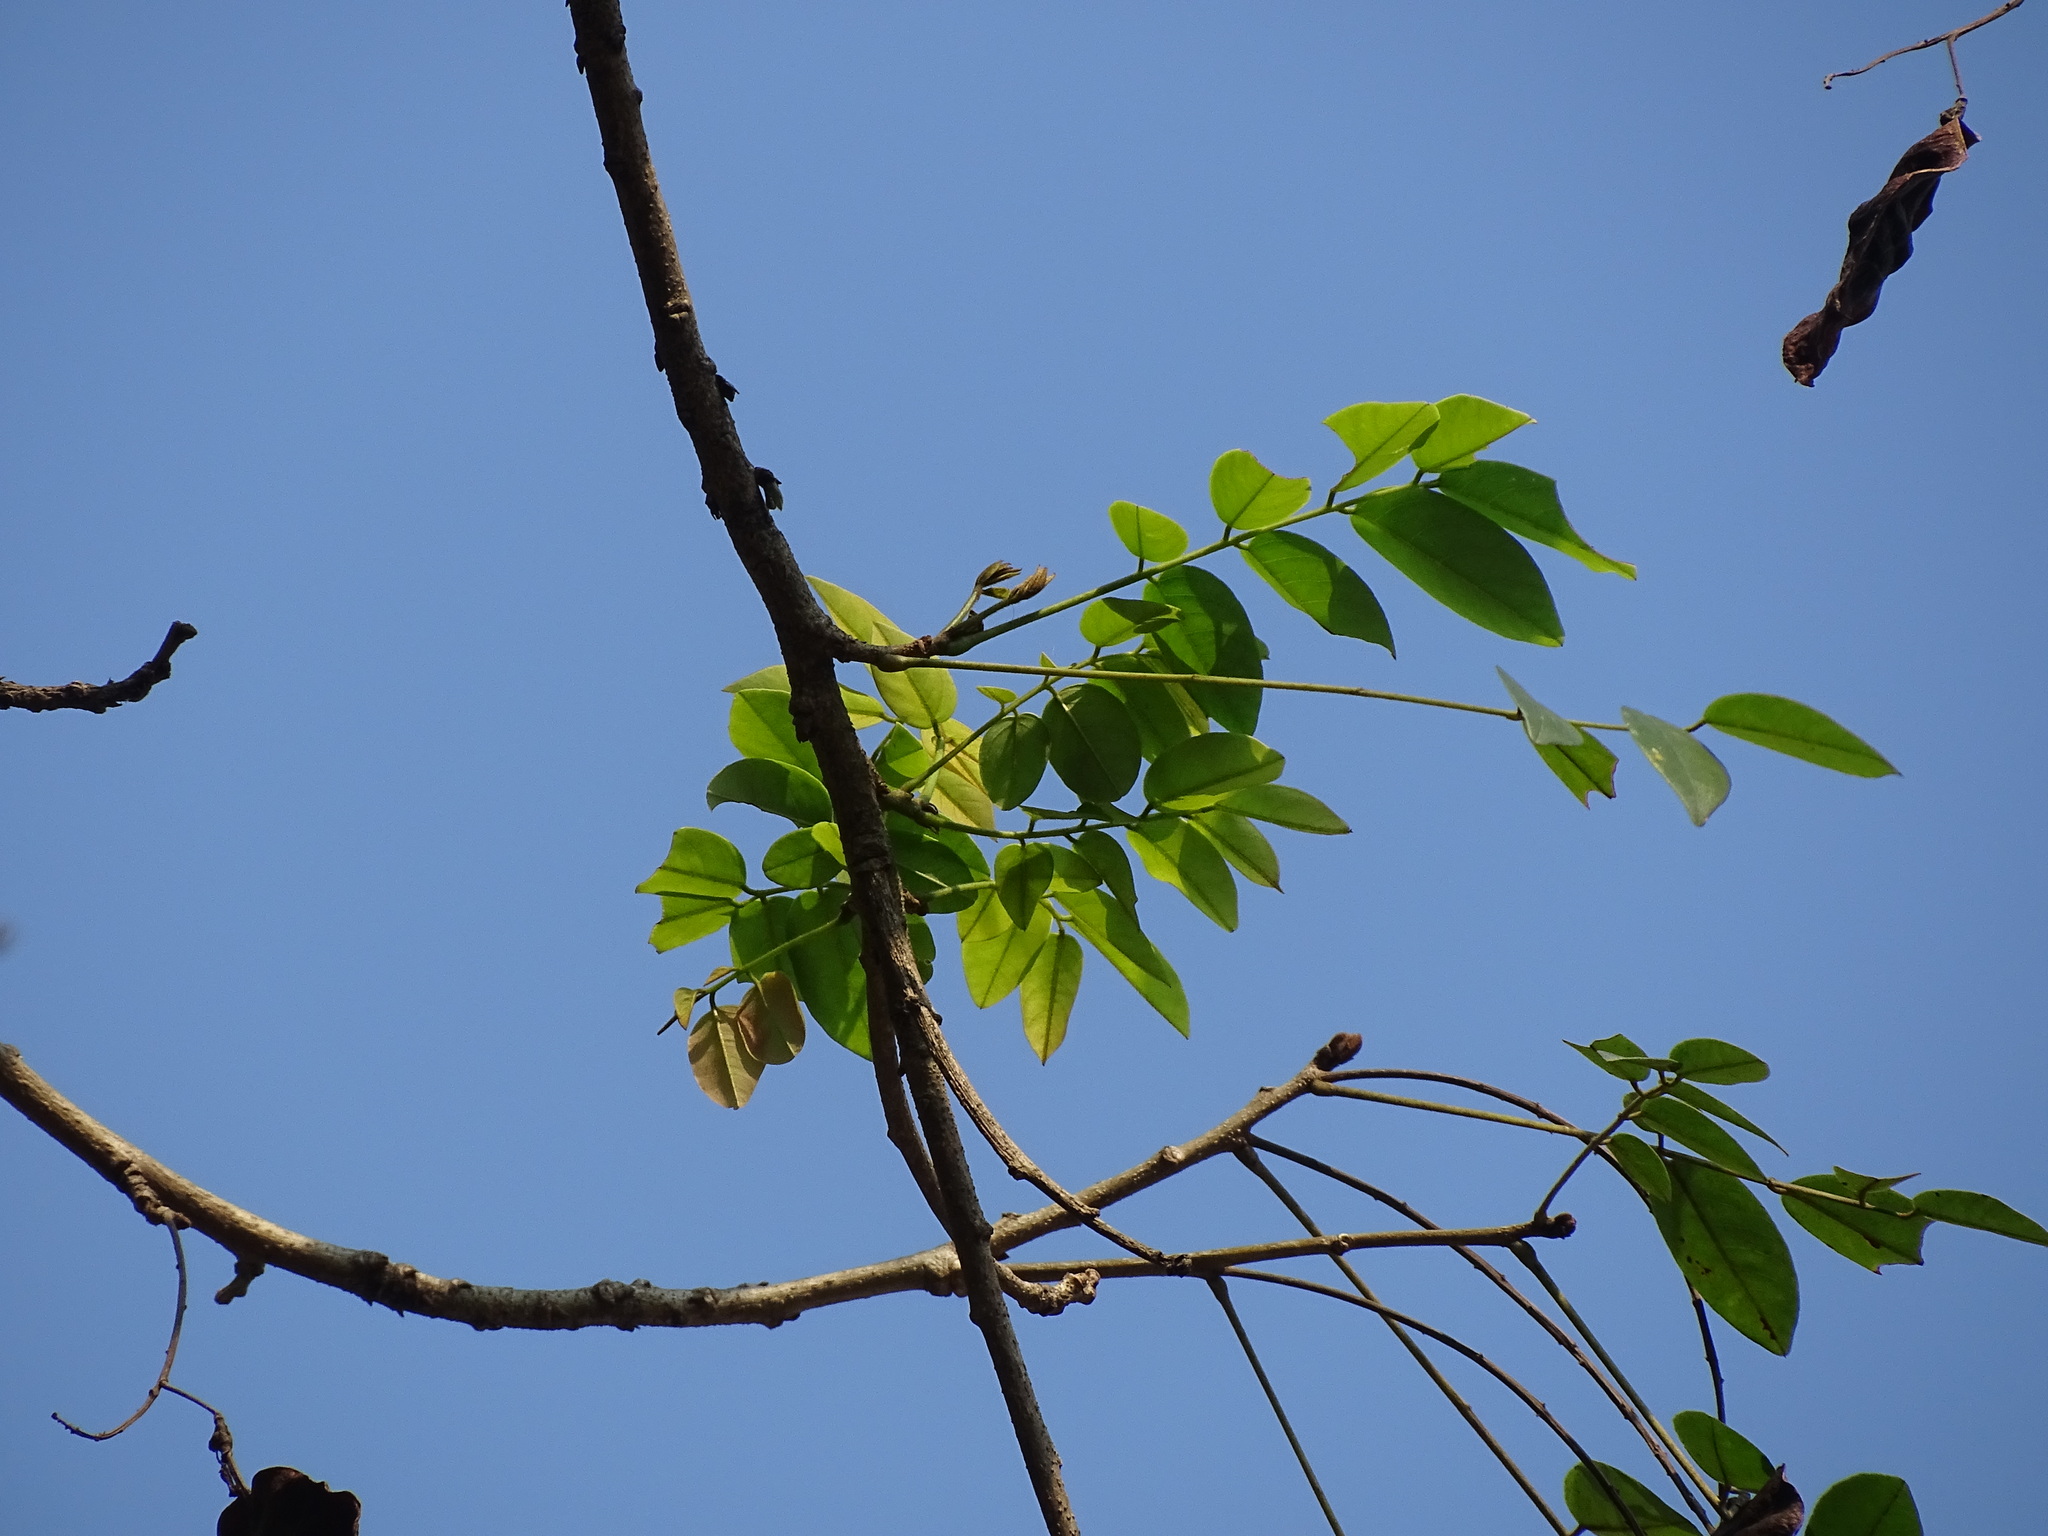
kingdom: Plantae
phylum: Tracheophyta
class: Magnoliopsida
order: Fabales
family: Fabaceae
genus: Pterocarpus
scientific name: Pterocarpus rohrii
